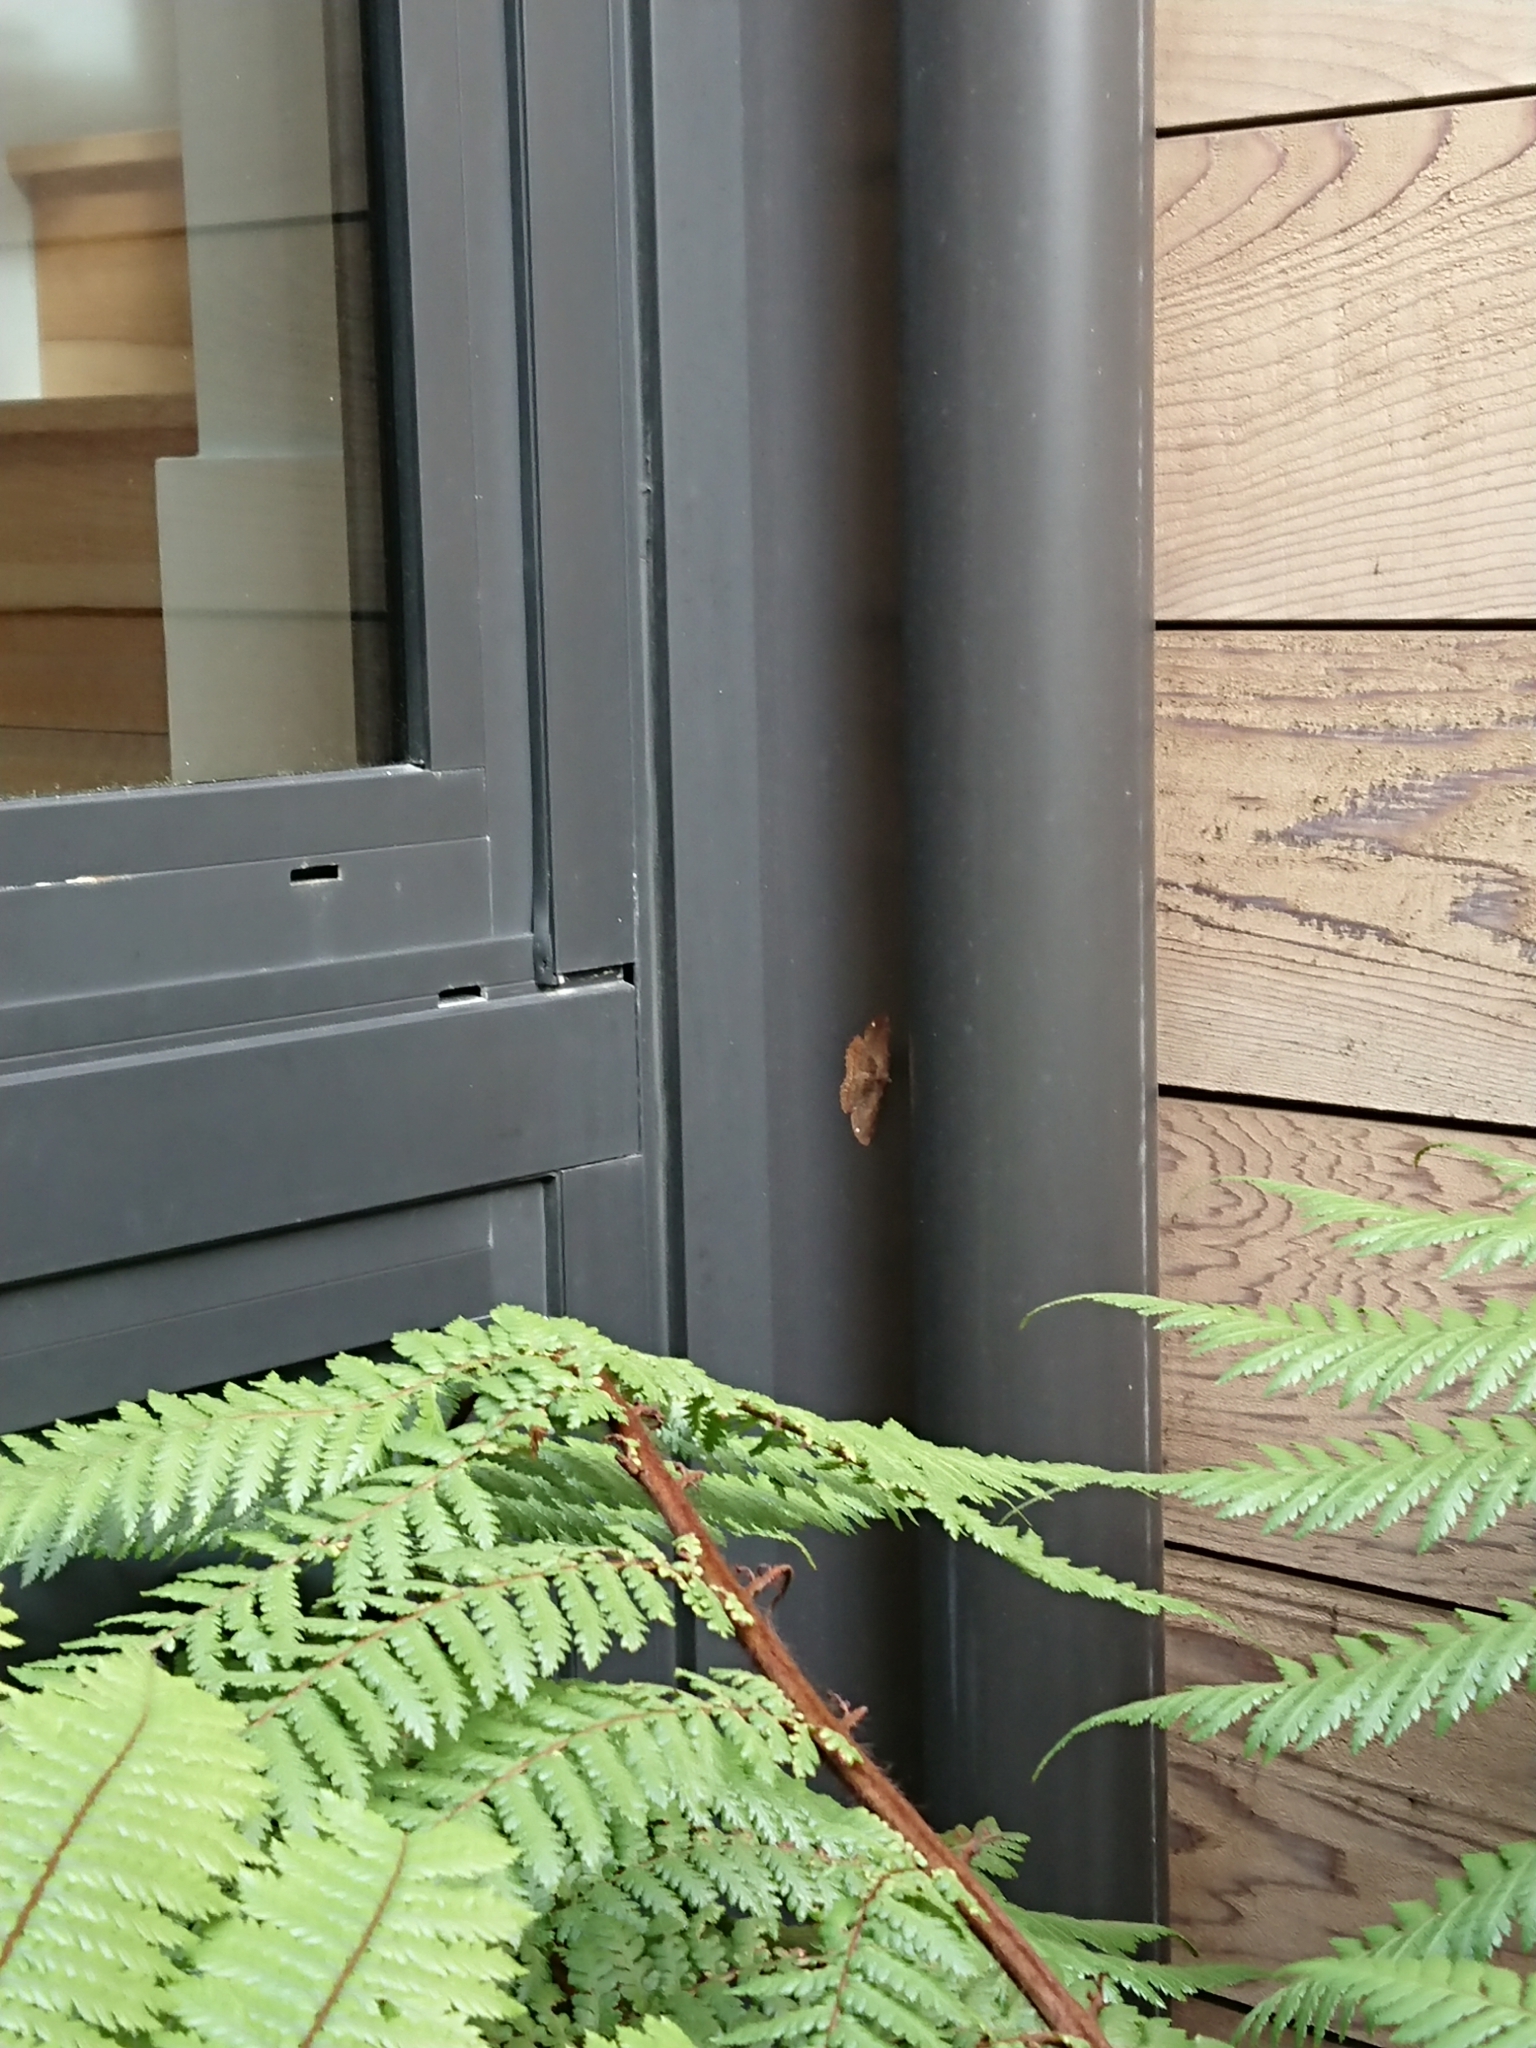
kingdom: Animalia
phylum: Arthropoda
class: Insecta
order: Lepidoptera
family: Geometridae
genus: Gellonia
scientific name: Gellonia dejectaria
